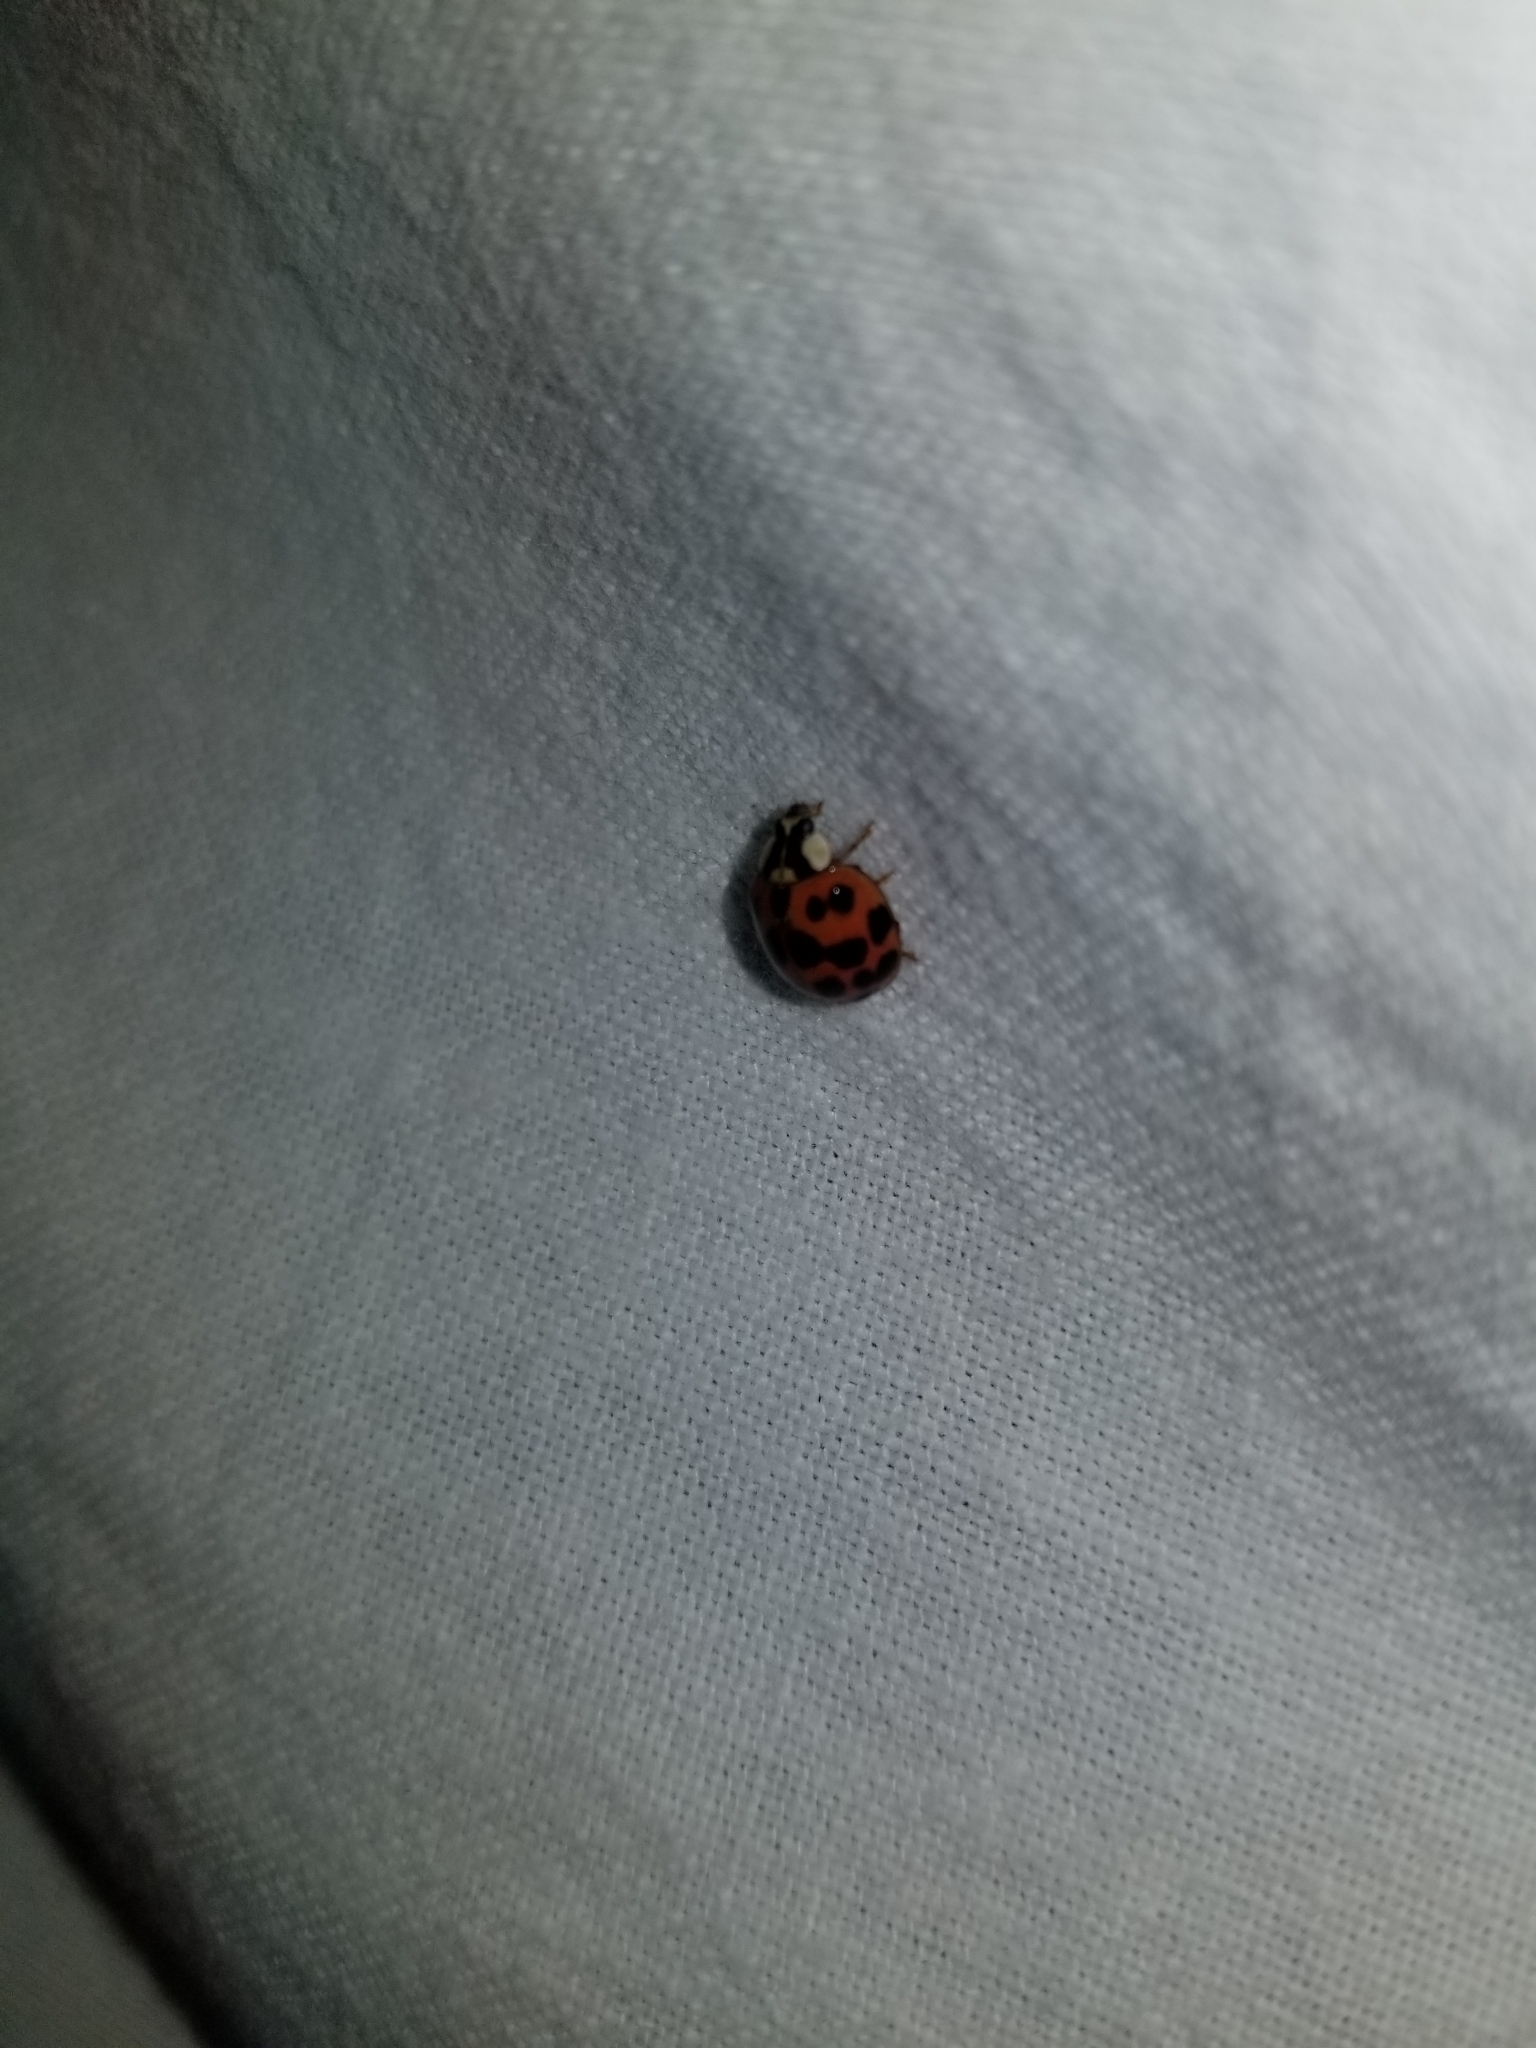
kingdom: Animalia
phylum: Arthropoda
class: Insecta
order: Coleoptera
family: Coccinellidae
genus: Harmonia
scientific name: Harmonia axyridis
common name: Harlequin ladybird
